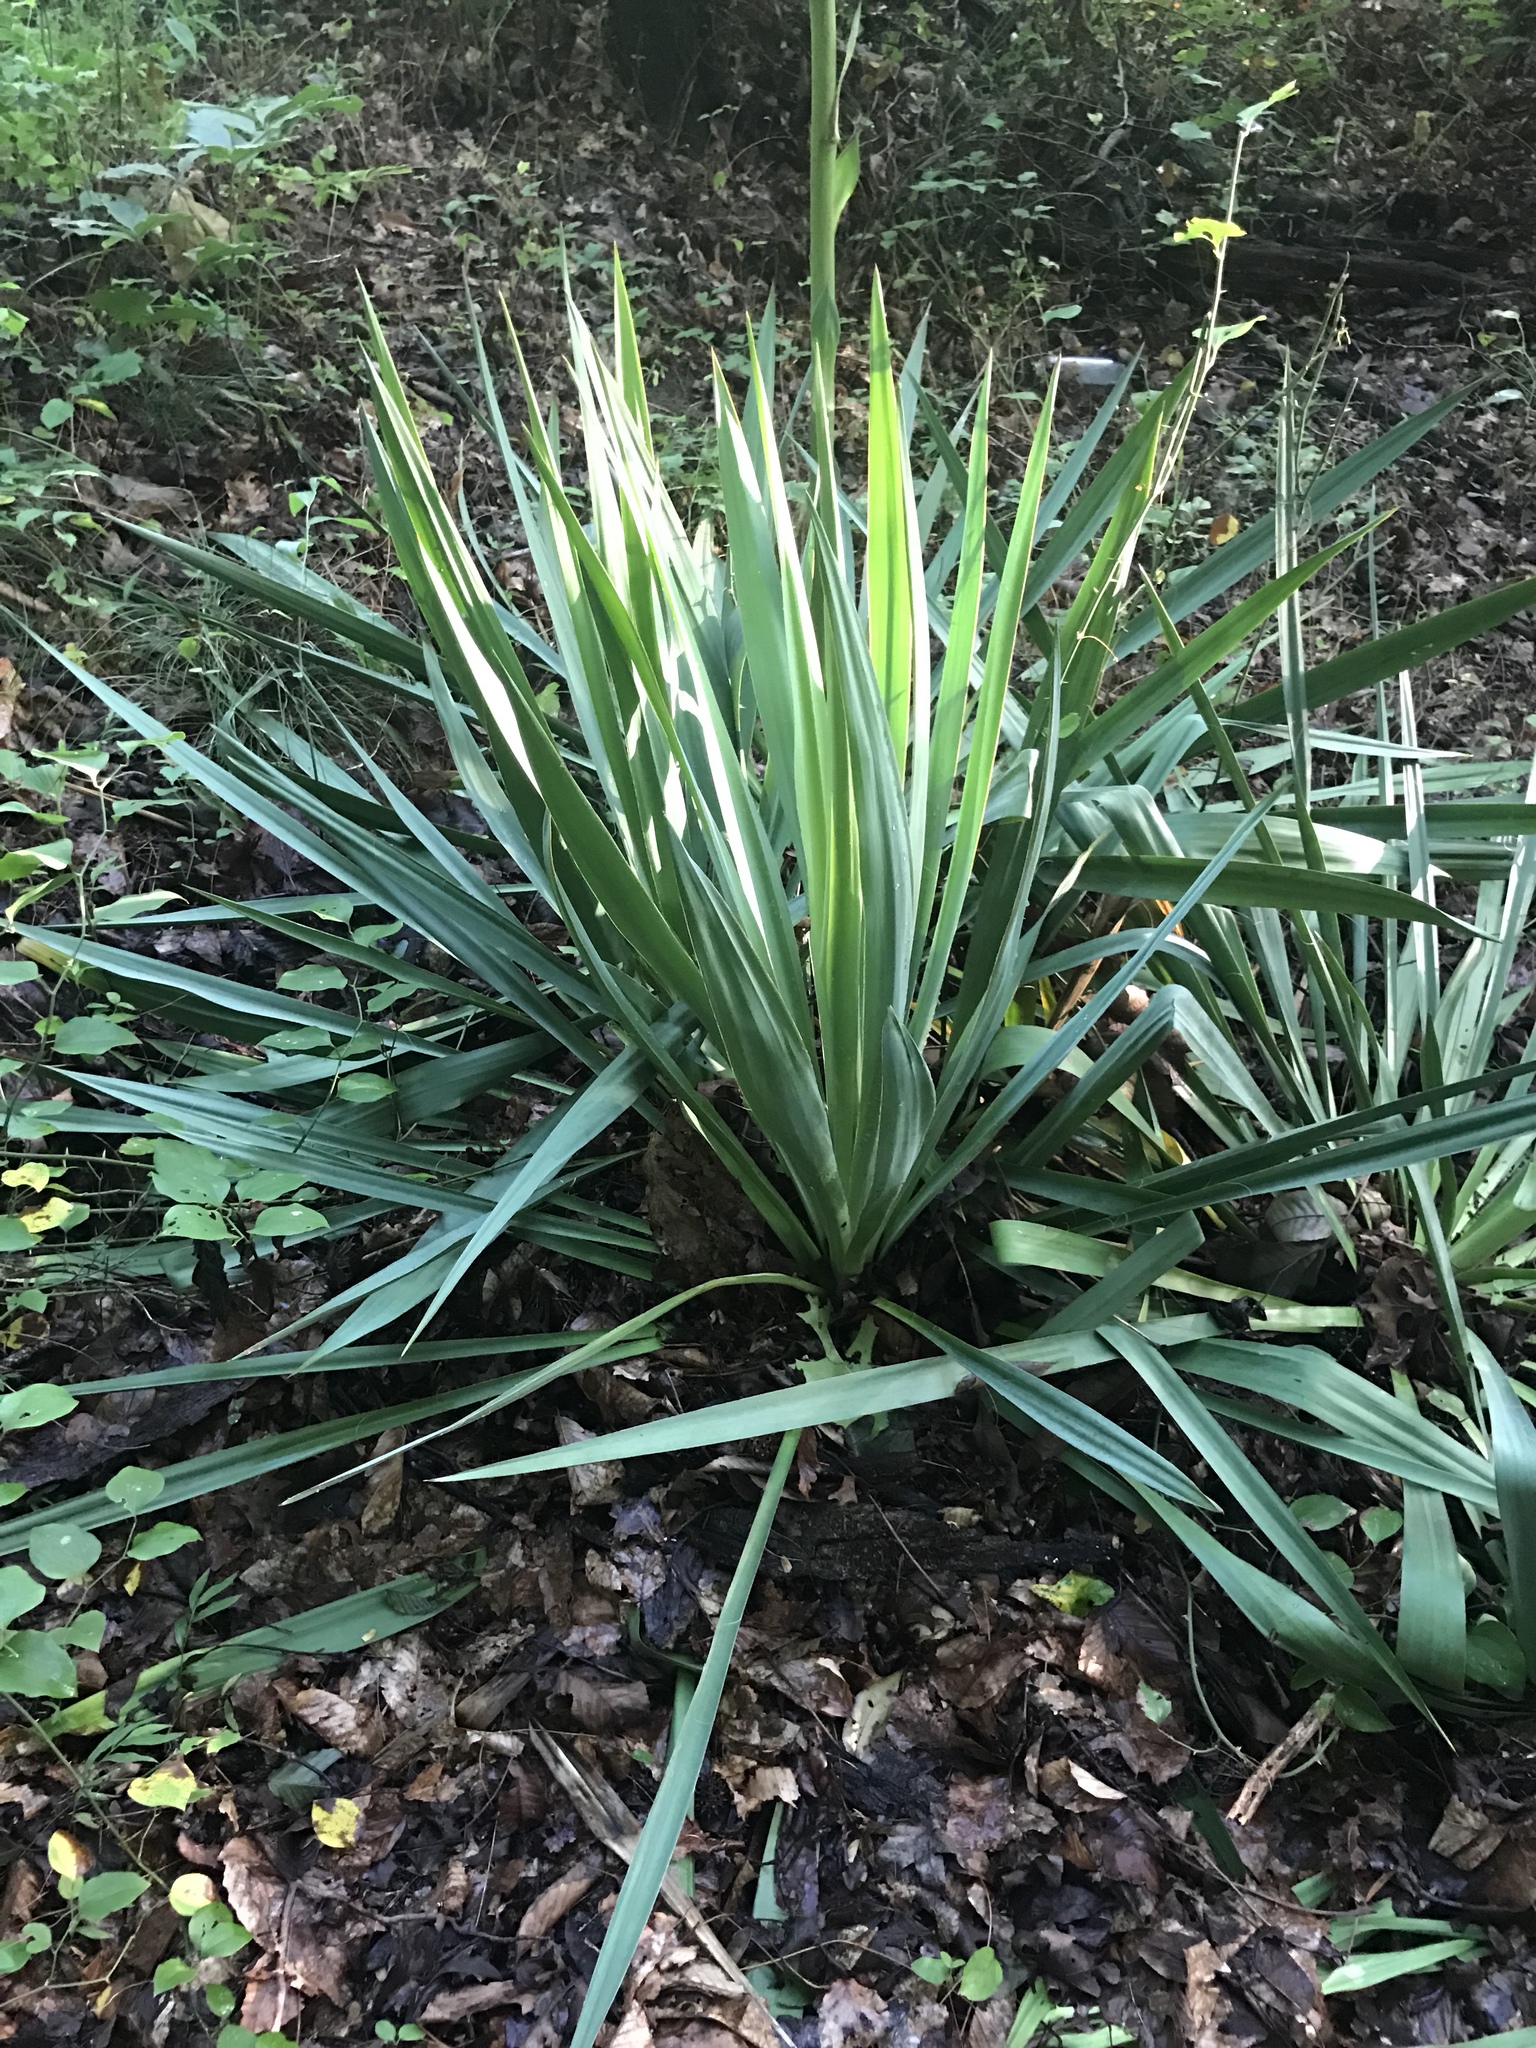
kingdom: Plantae
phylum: Tracheophyta
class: Liliopsida
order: Asparagales
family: Asparagaceae
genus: Yucca
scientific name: Yucca filamentosa
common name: Adam's-needle
